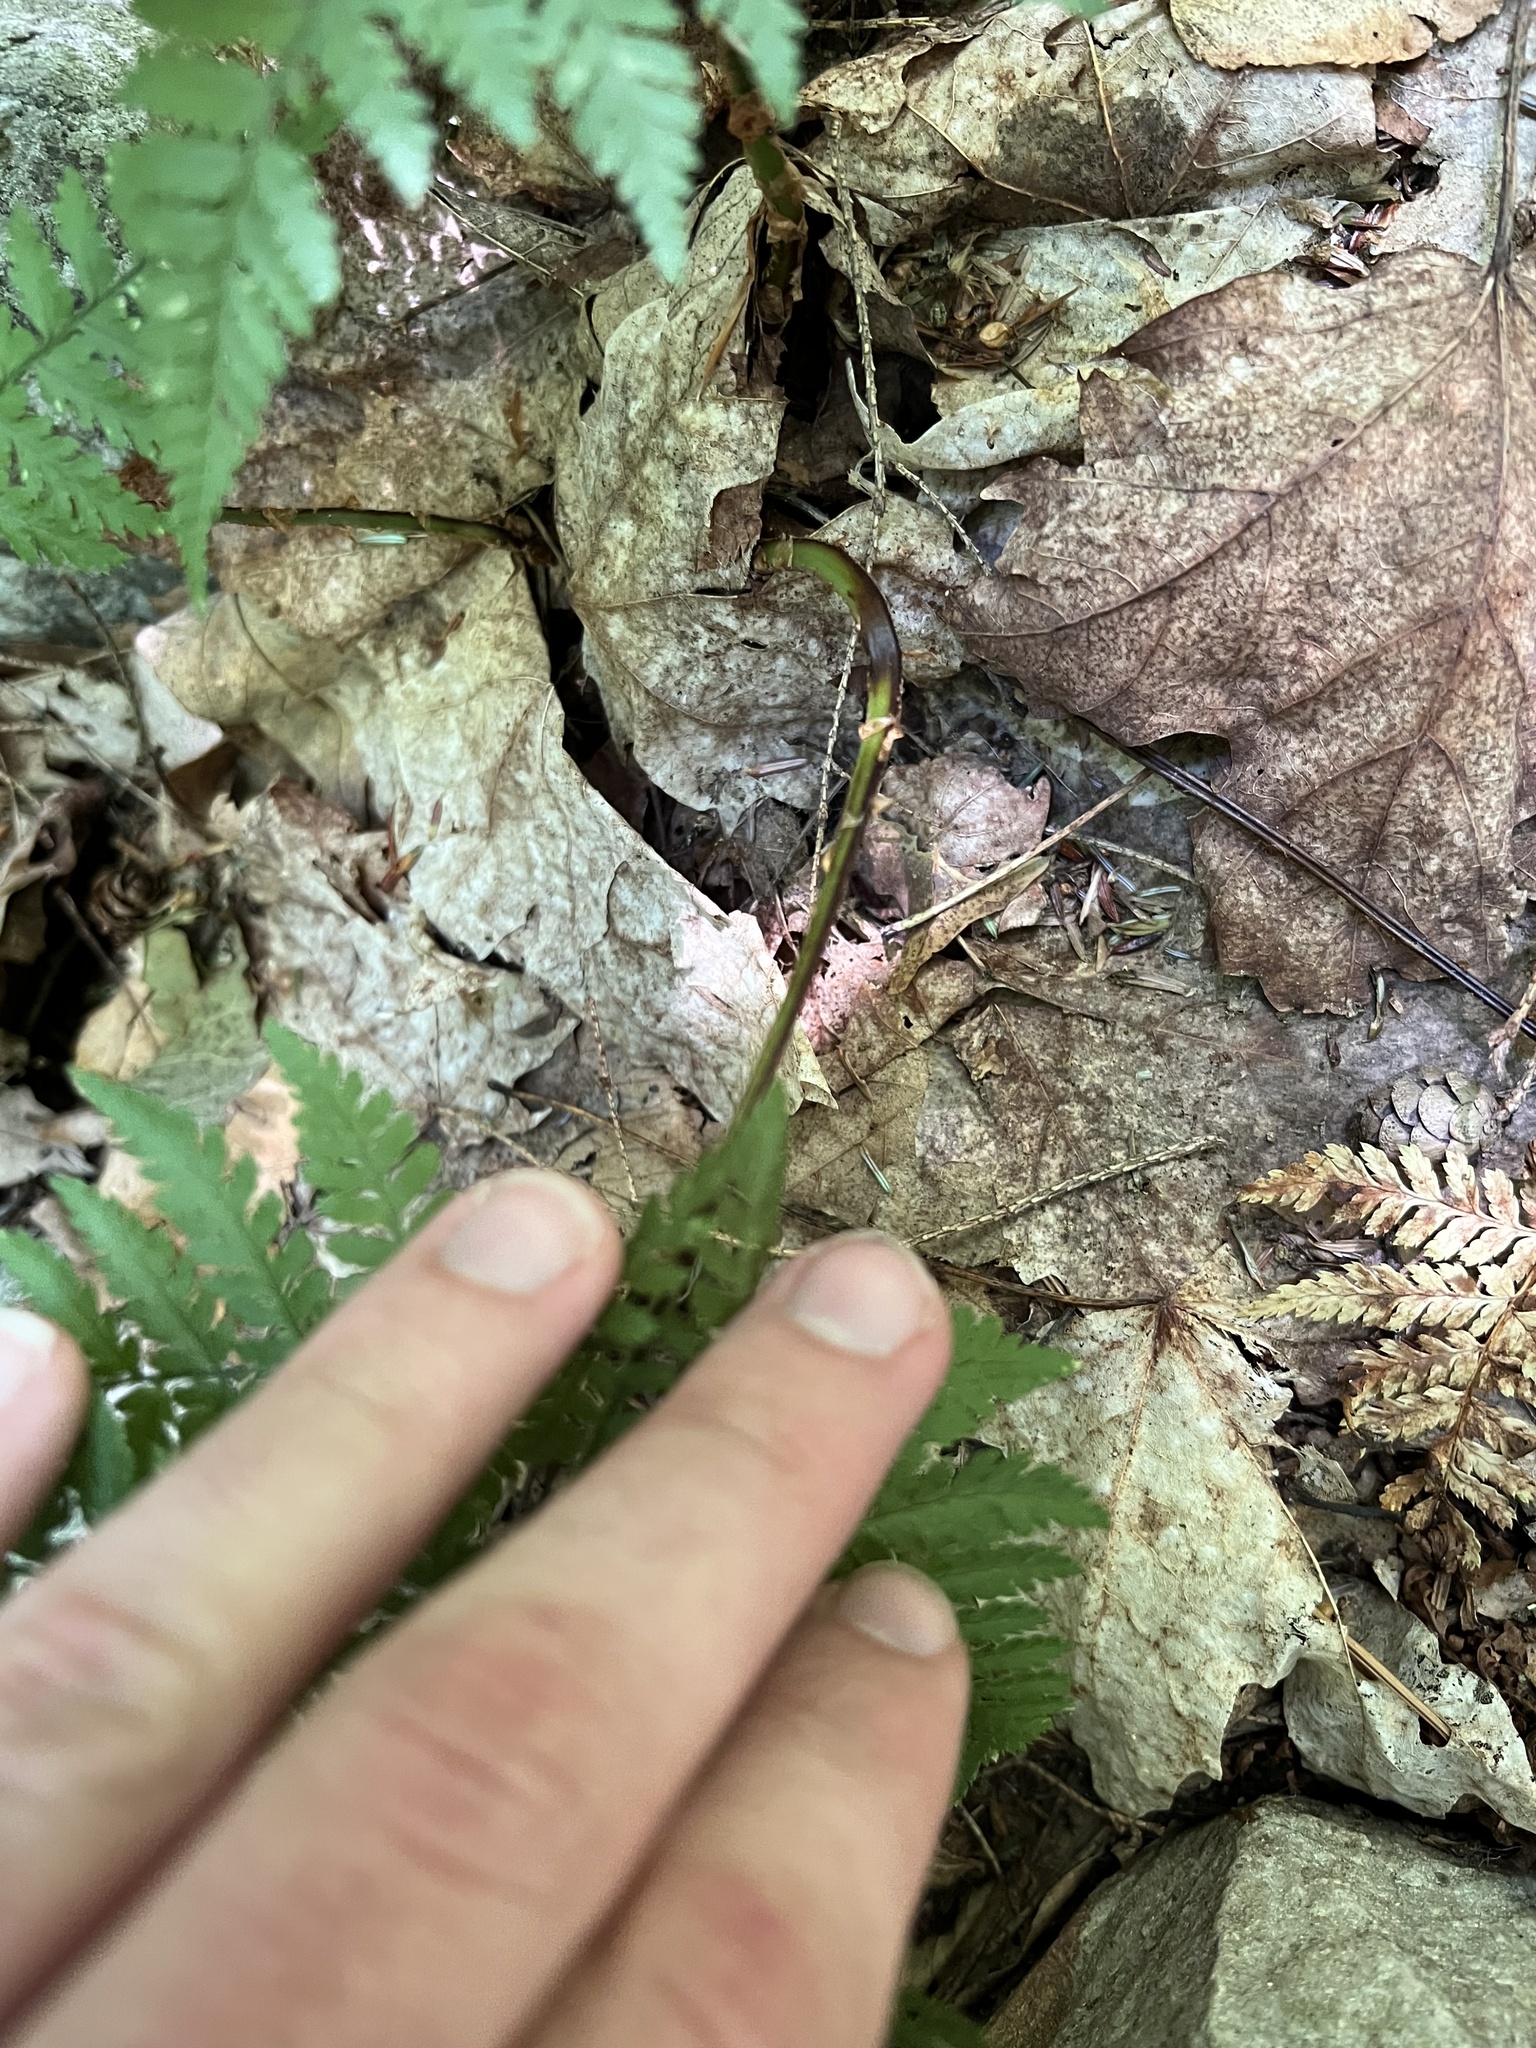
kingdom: Plantae
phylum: Tracheophyta
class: Polypodiopsida
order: Polypodiales
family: Dryopteridaceae
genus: Dryopteris
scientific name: Dryopteris intermedia
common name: Evergreen wood fern
